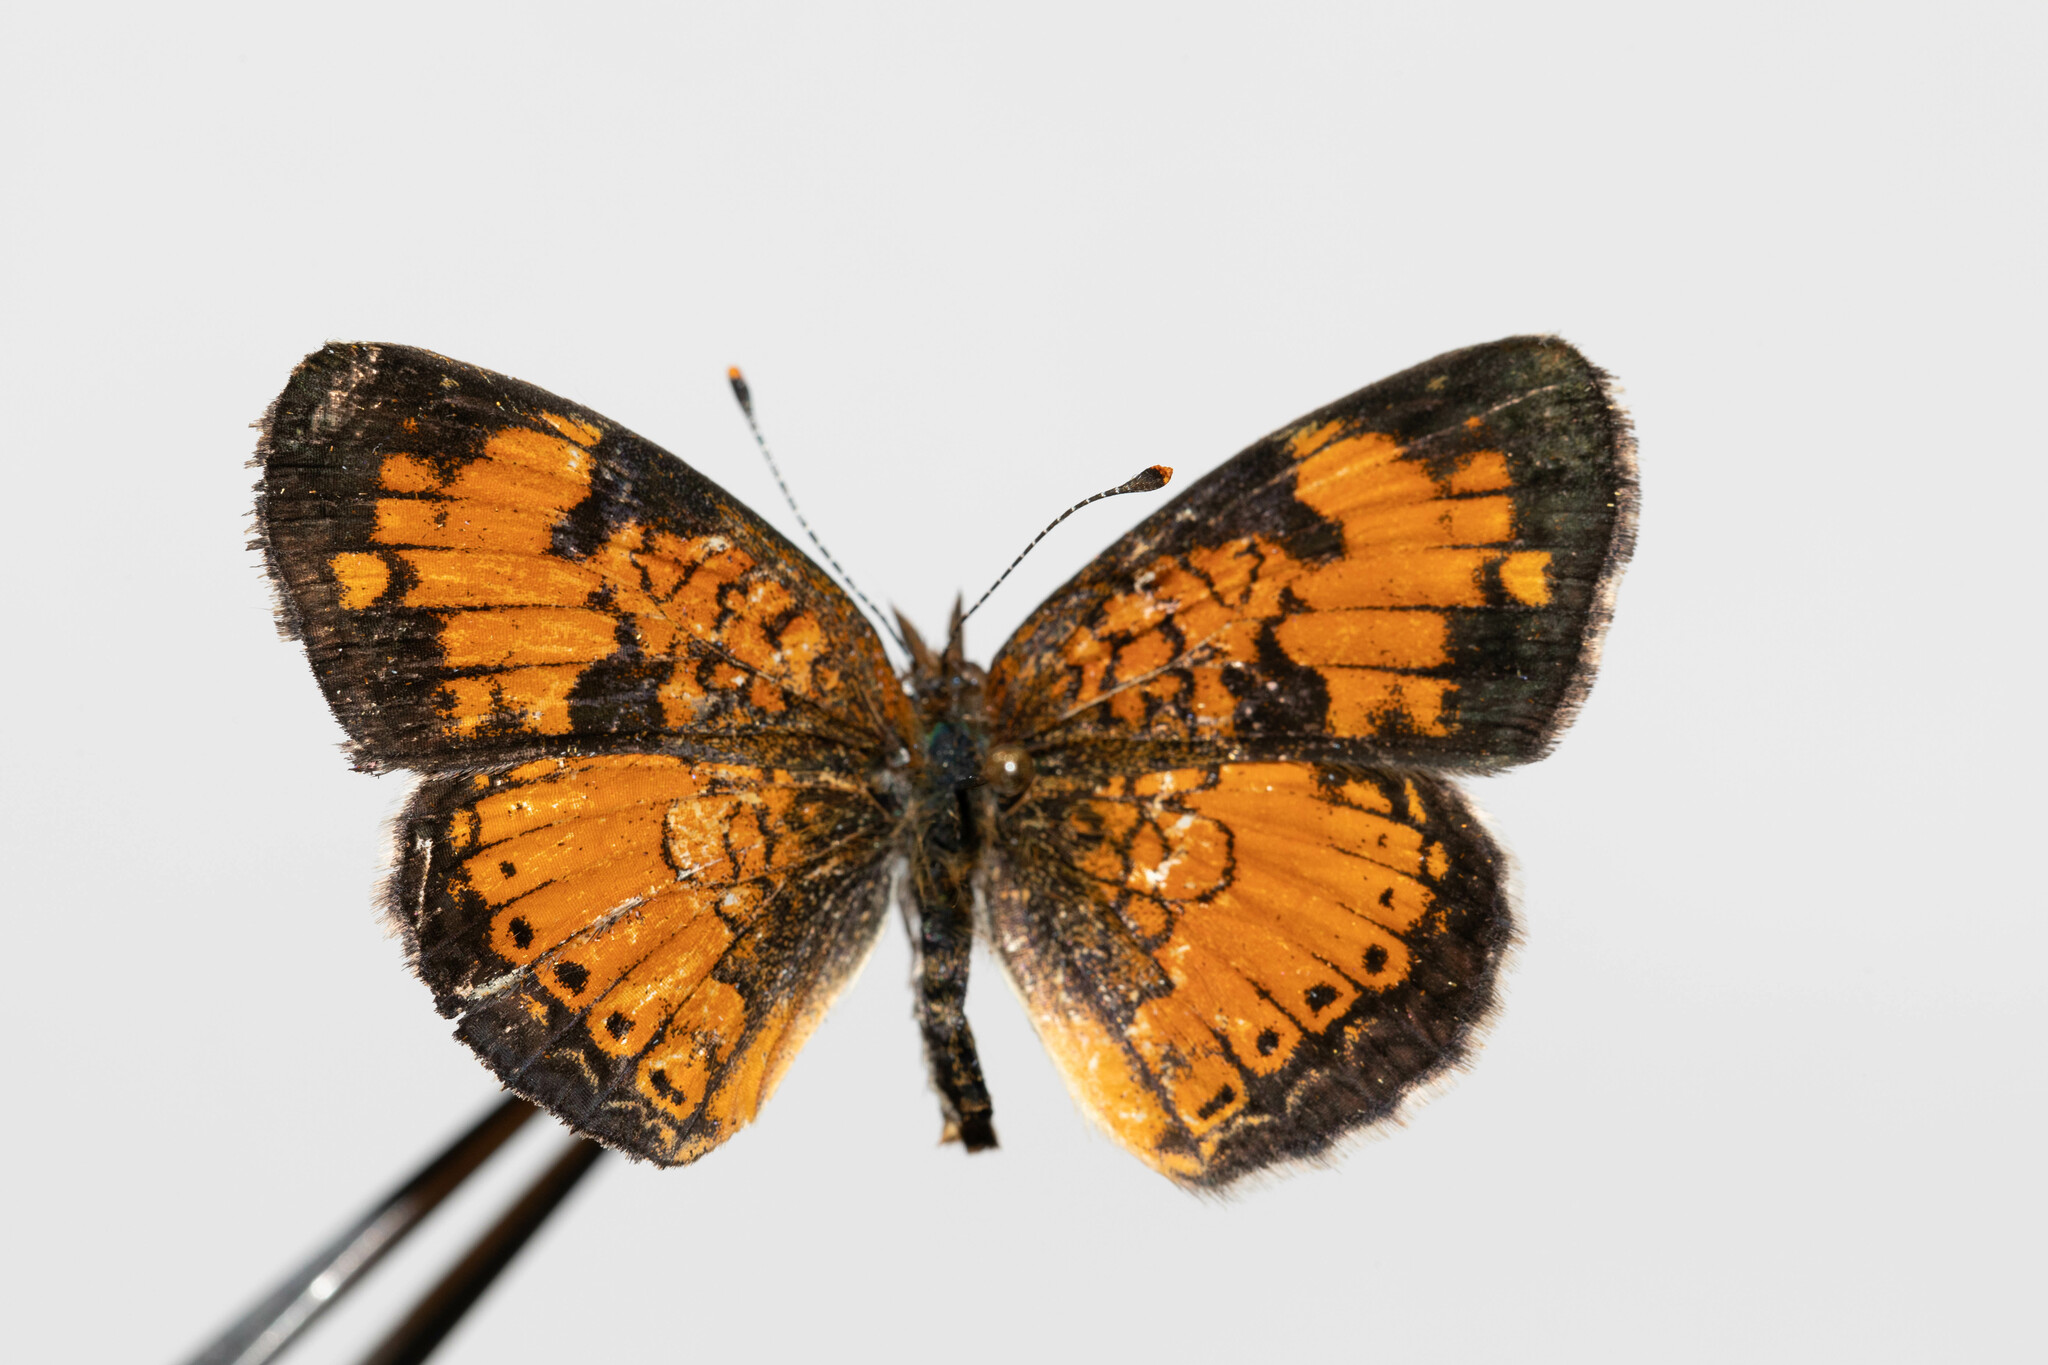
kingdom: Animalia
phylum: Arthropoda
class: Insecta
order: Lepidoptera
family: Nymphalidae
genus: Phyciodes
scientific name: Phyciodes tharos
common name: Pearl crescent
